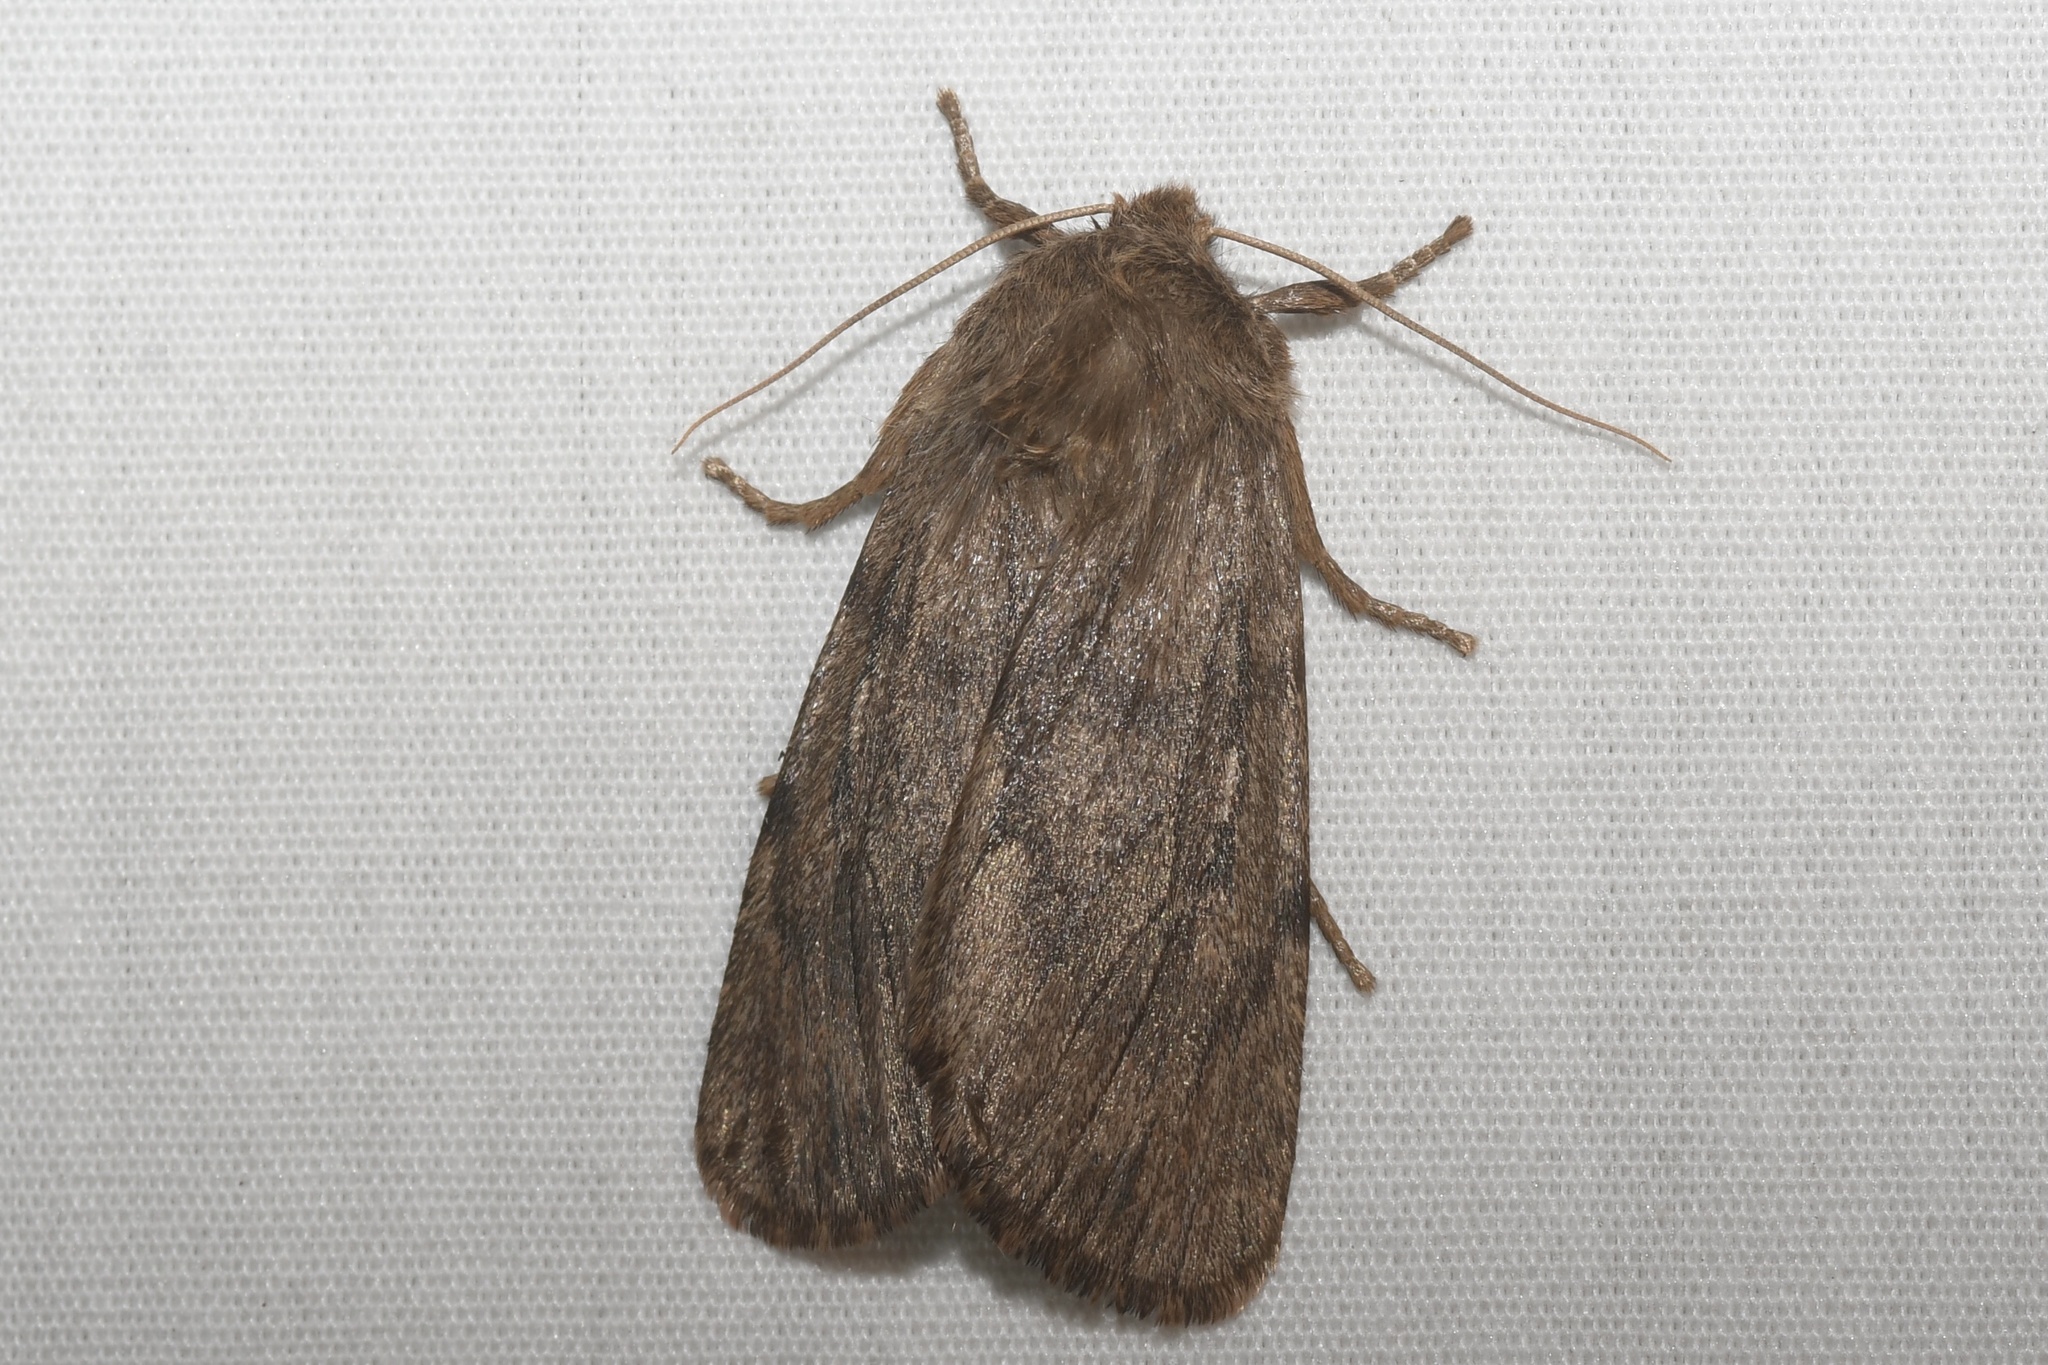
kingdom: Animalia
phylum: Arthropoda
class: Insecta
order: Lepidoptera
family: Noctuidae
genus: Ufeus
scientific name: Ufeus satyricus
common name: Brown satyr moth
